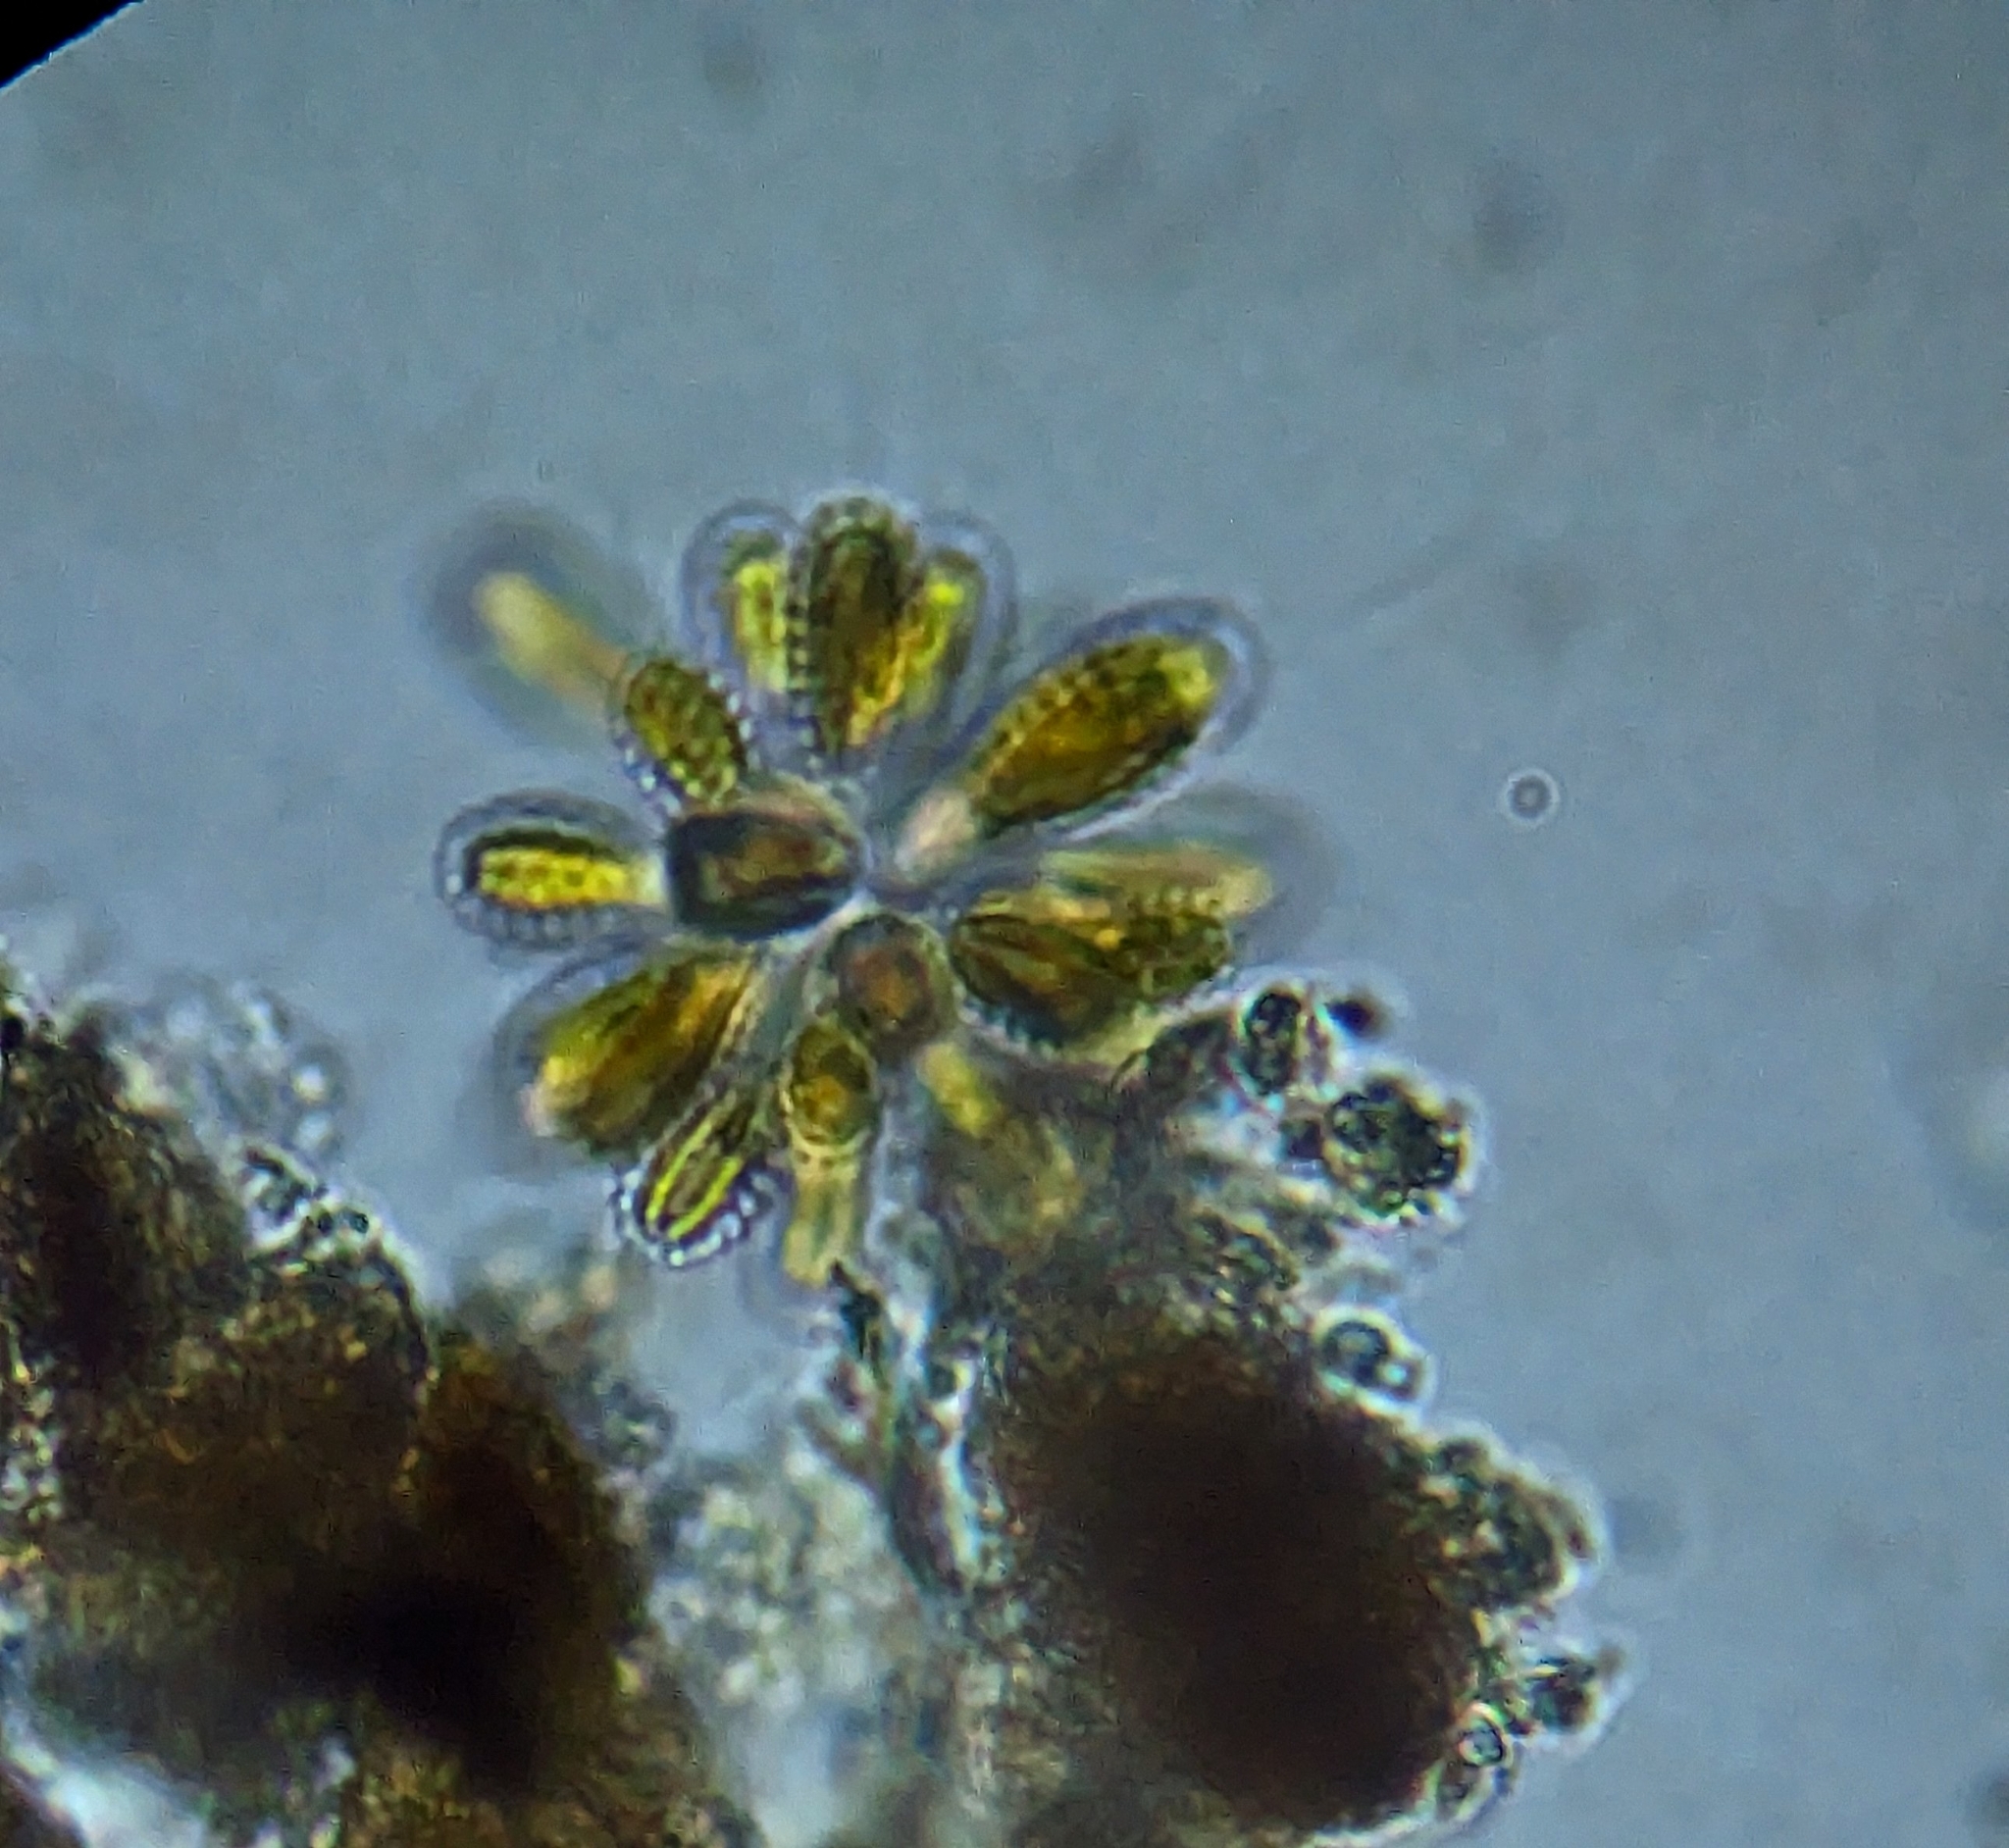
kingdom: Chromista
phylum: Ochrophyta
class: Synurophyceae
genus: Synura
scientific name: Synura
